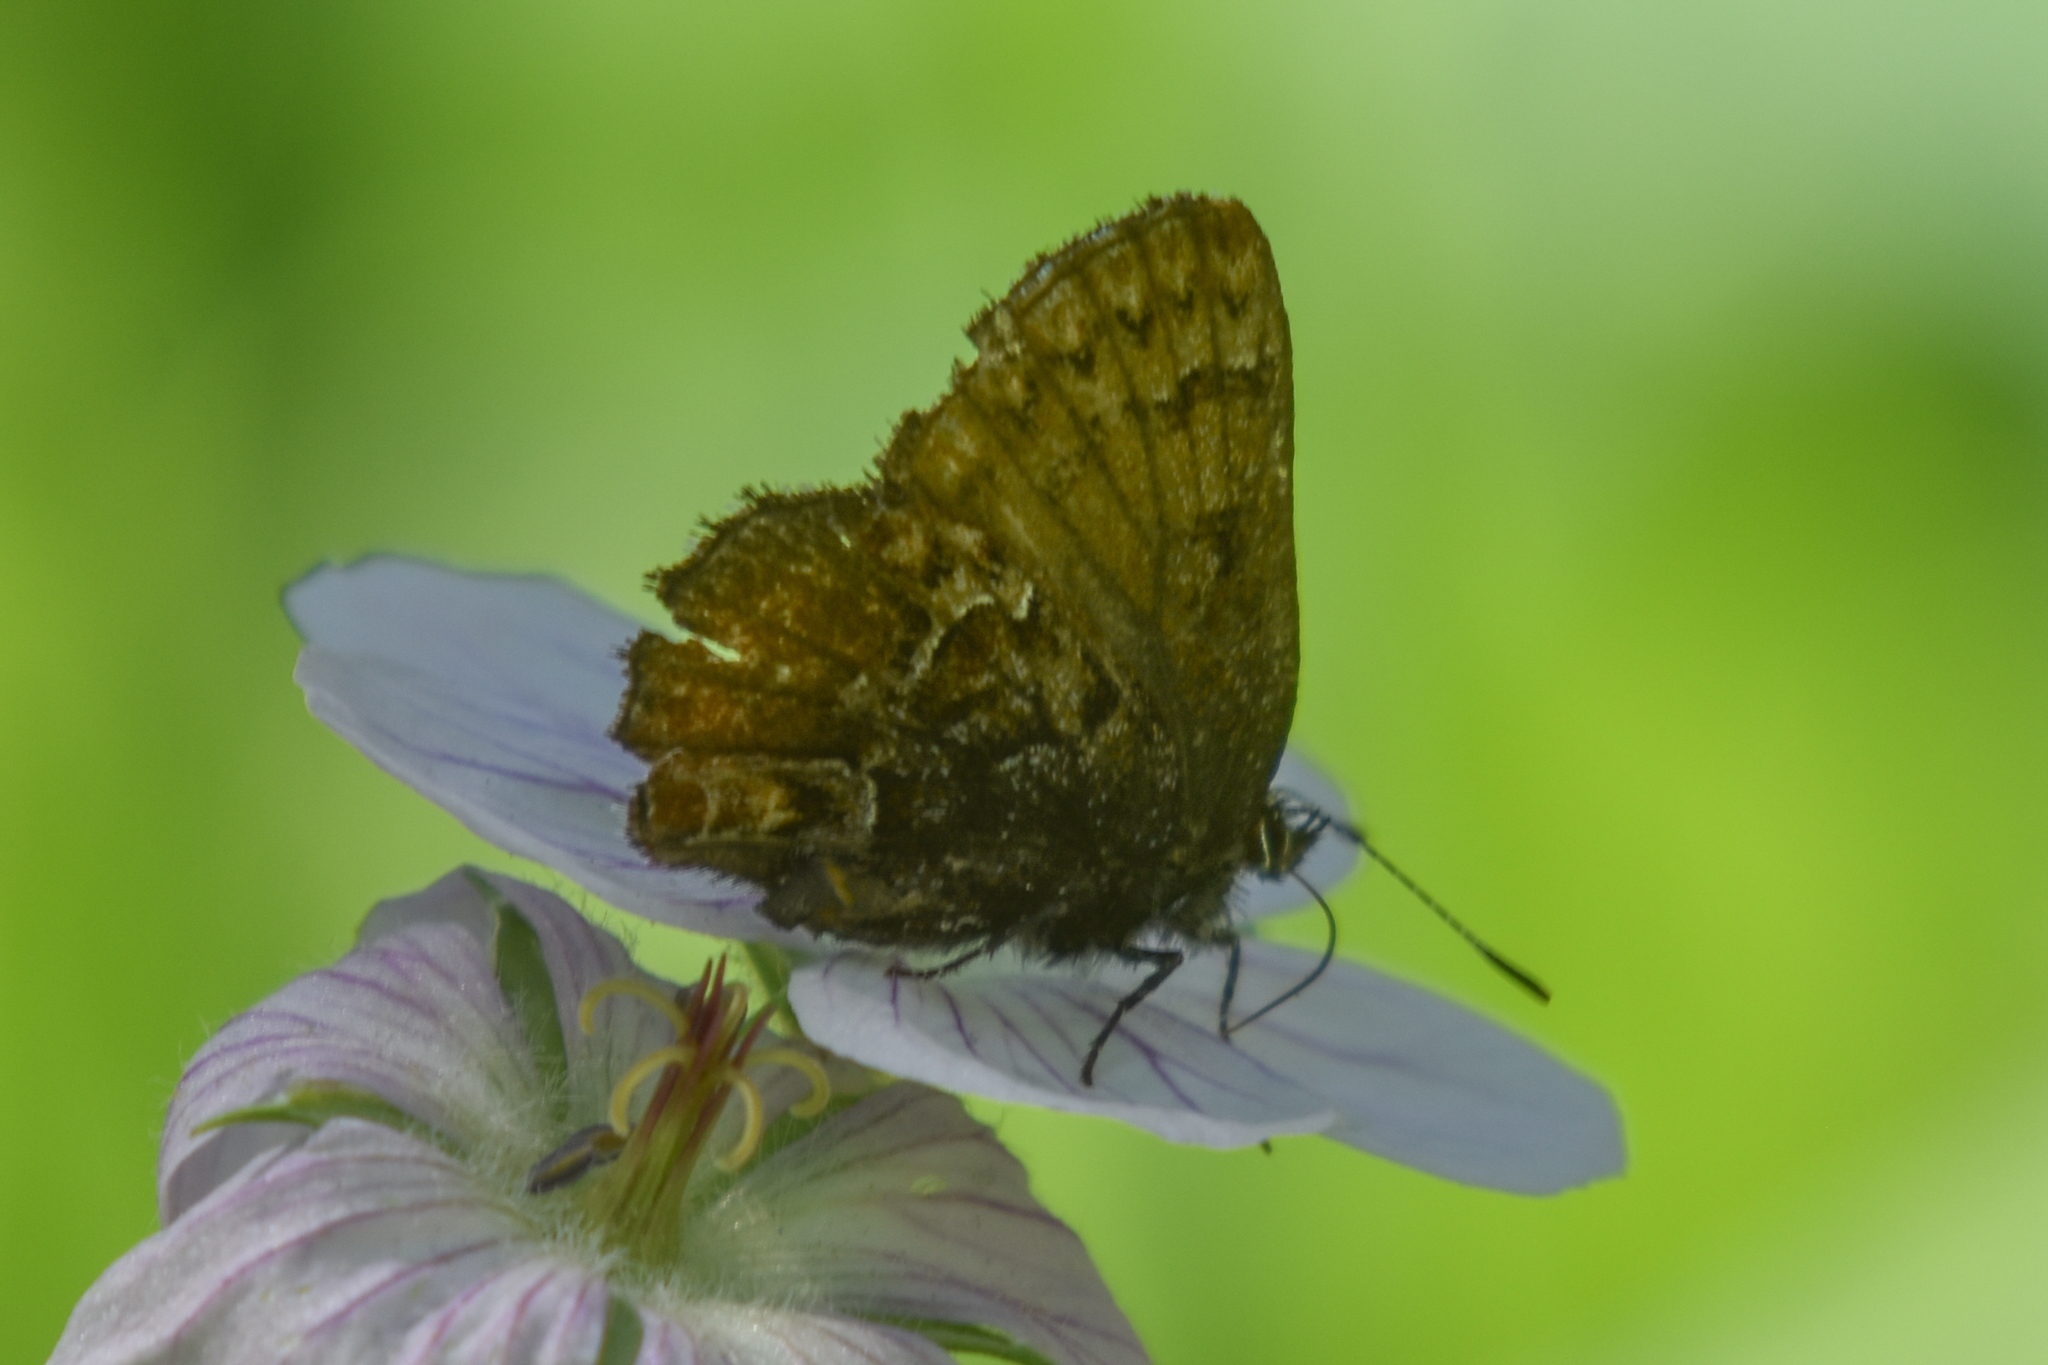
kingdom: Animalia
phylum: Arthropoda
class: Insecta
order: Lepidoptera
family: Lycaenidae
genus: Incisalia
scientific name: Incisalia eryphon
